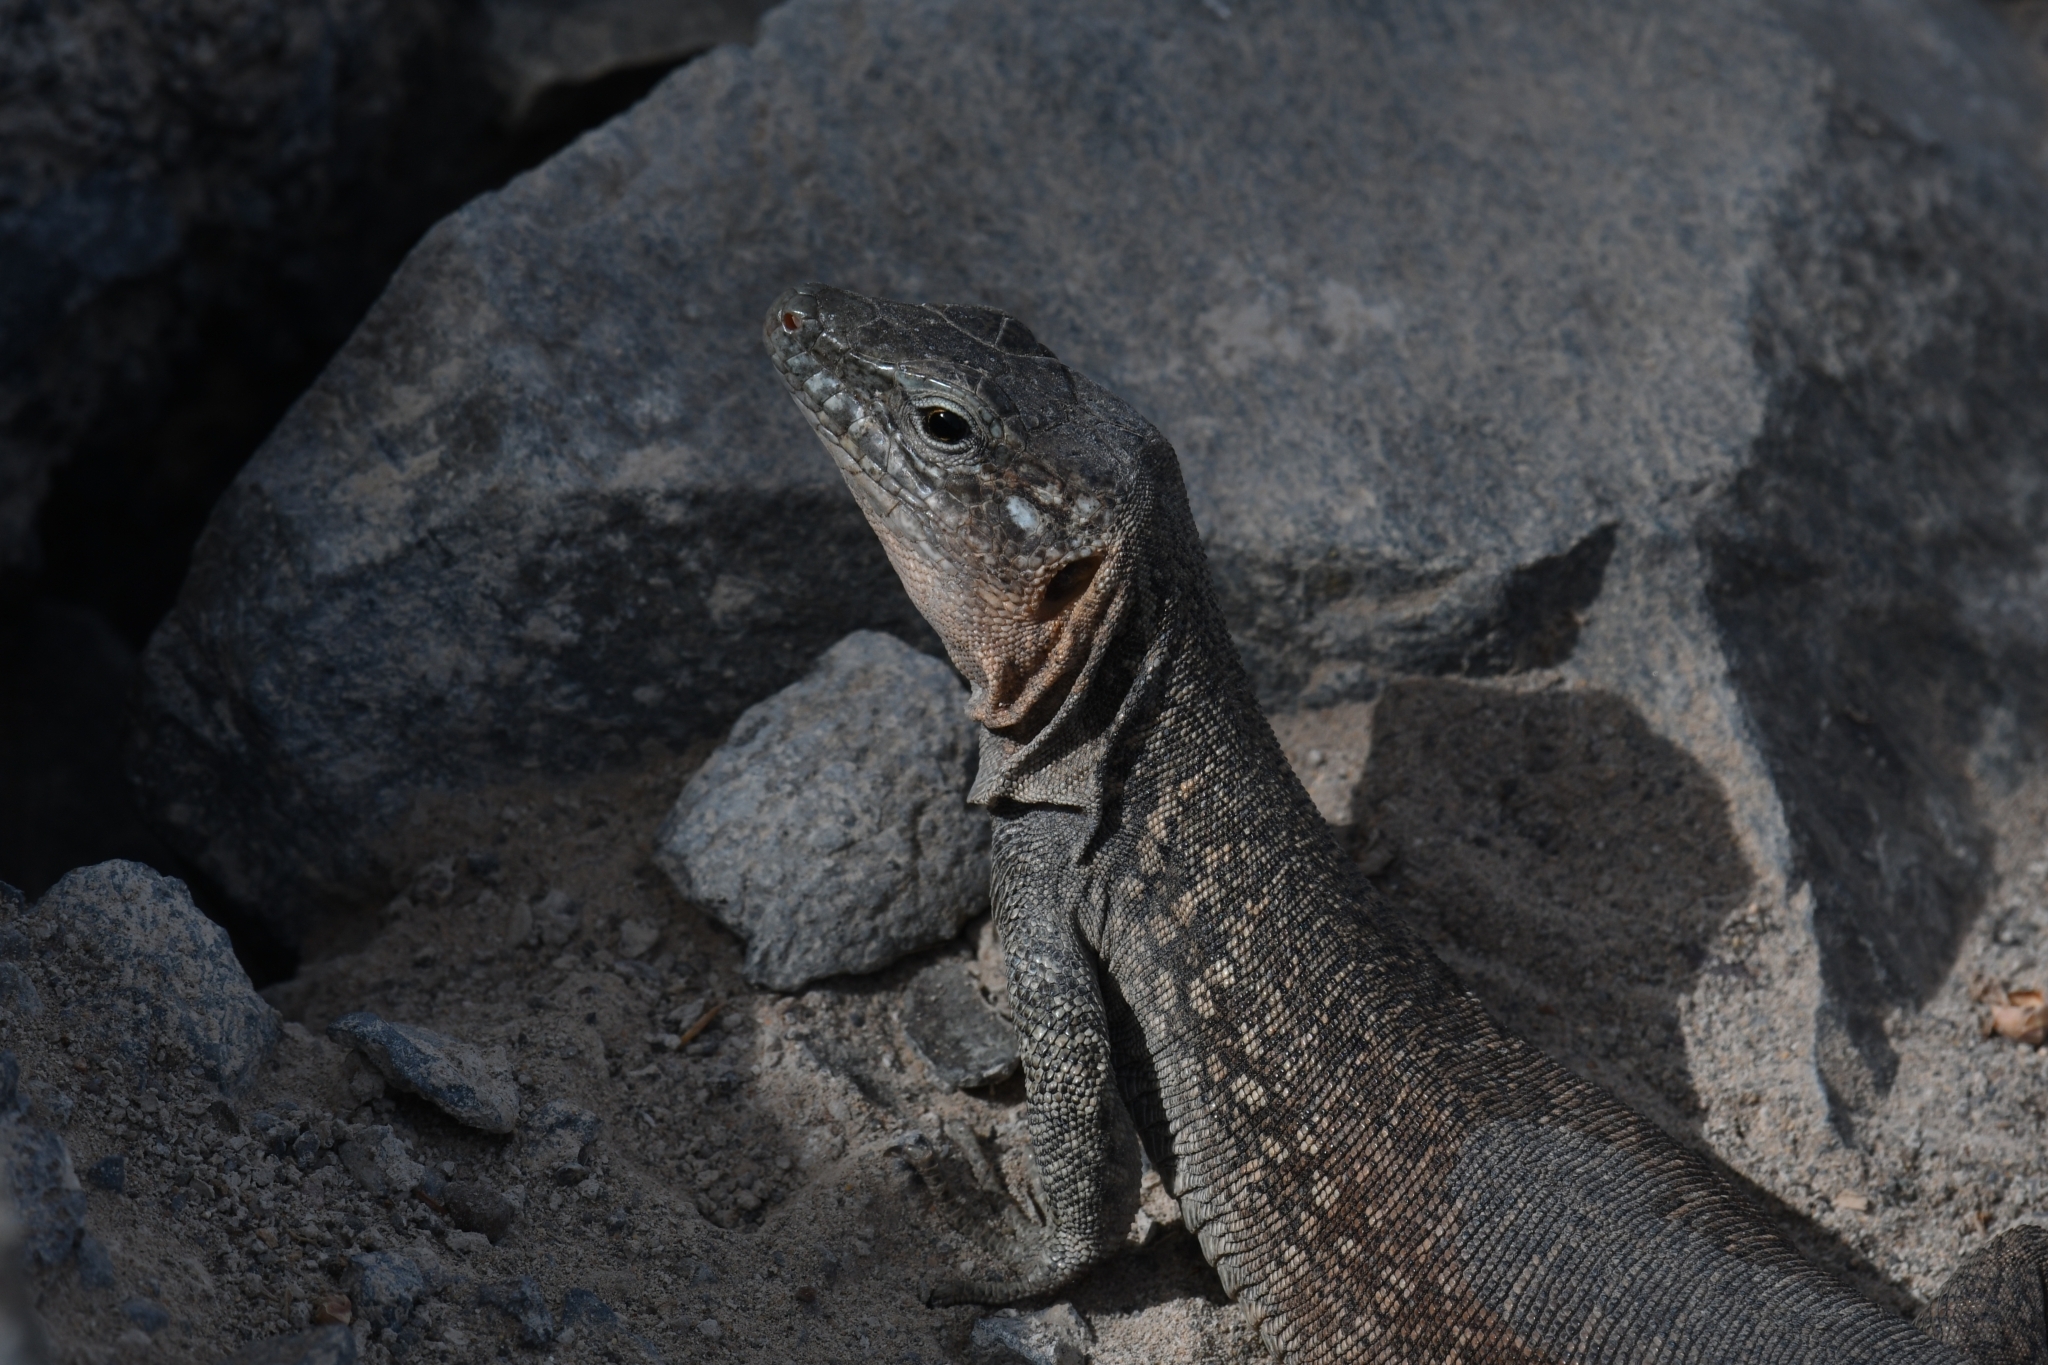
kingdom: Animalia
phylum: Chordata
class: Squamata
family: Lacertidae
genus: Gallotia
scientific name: Gallotia stehlini
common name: Gran canaria giant lizard
